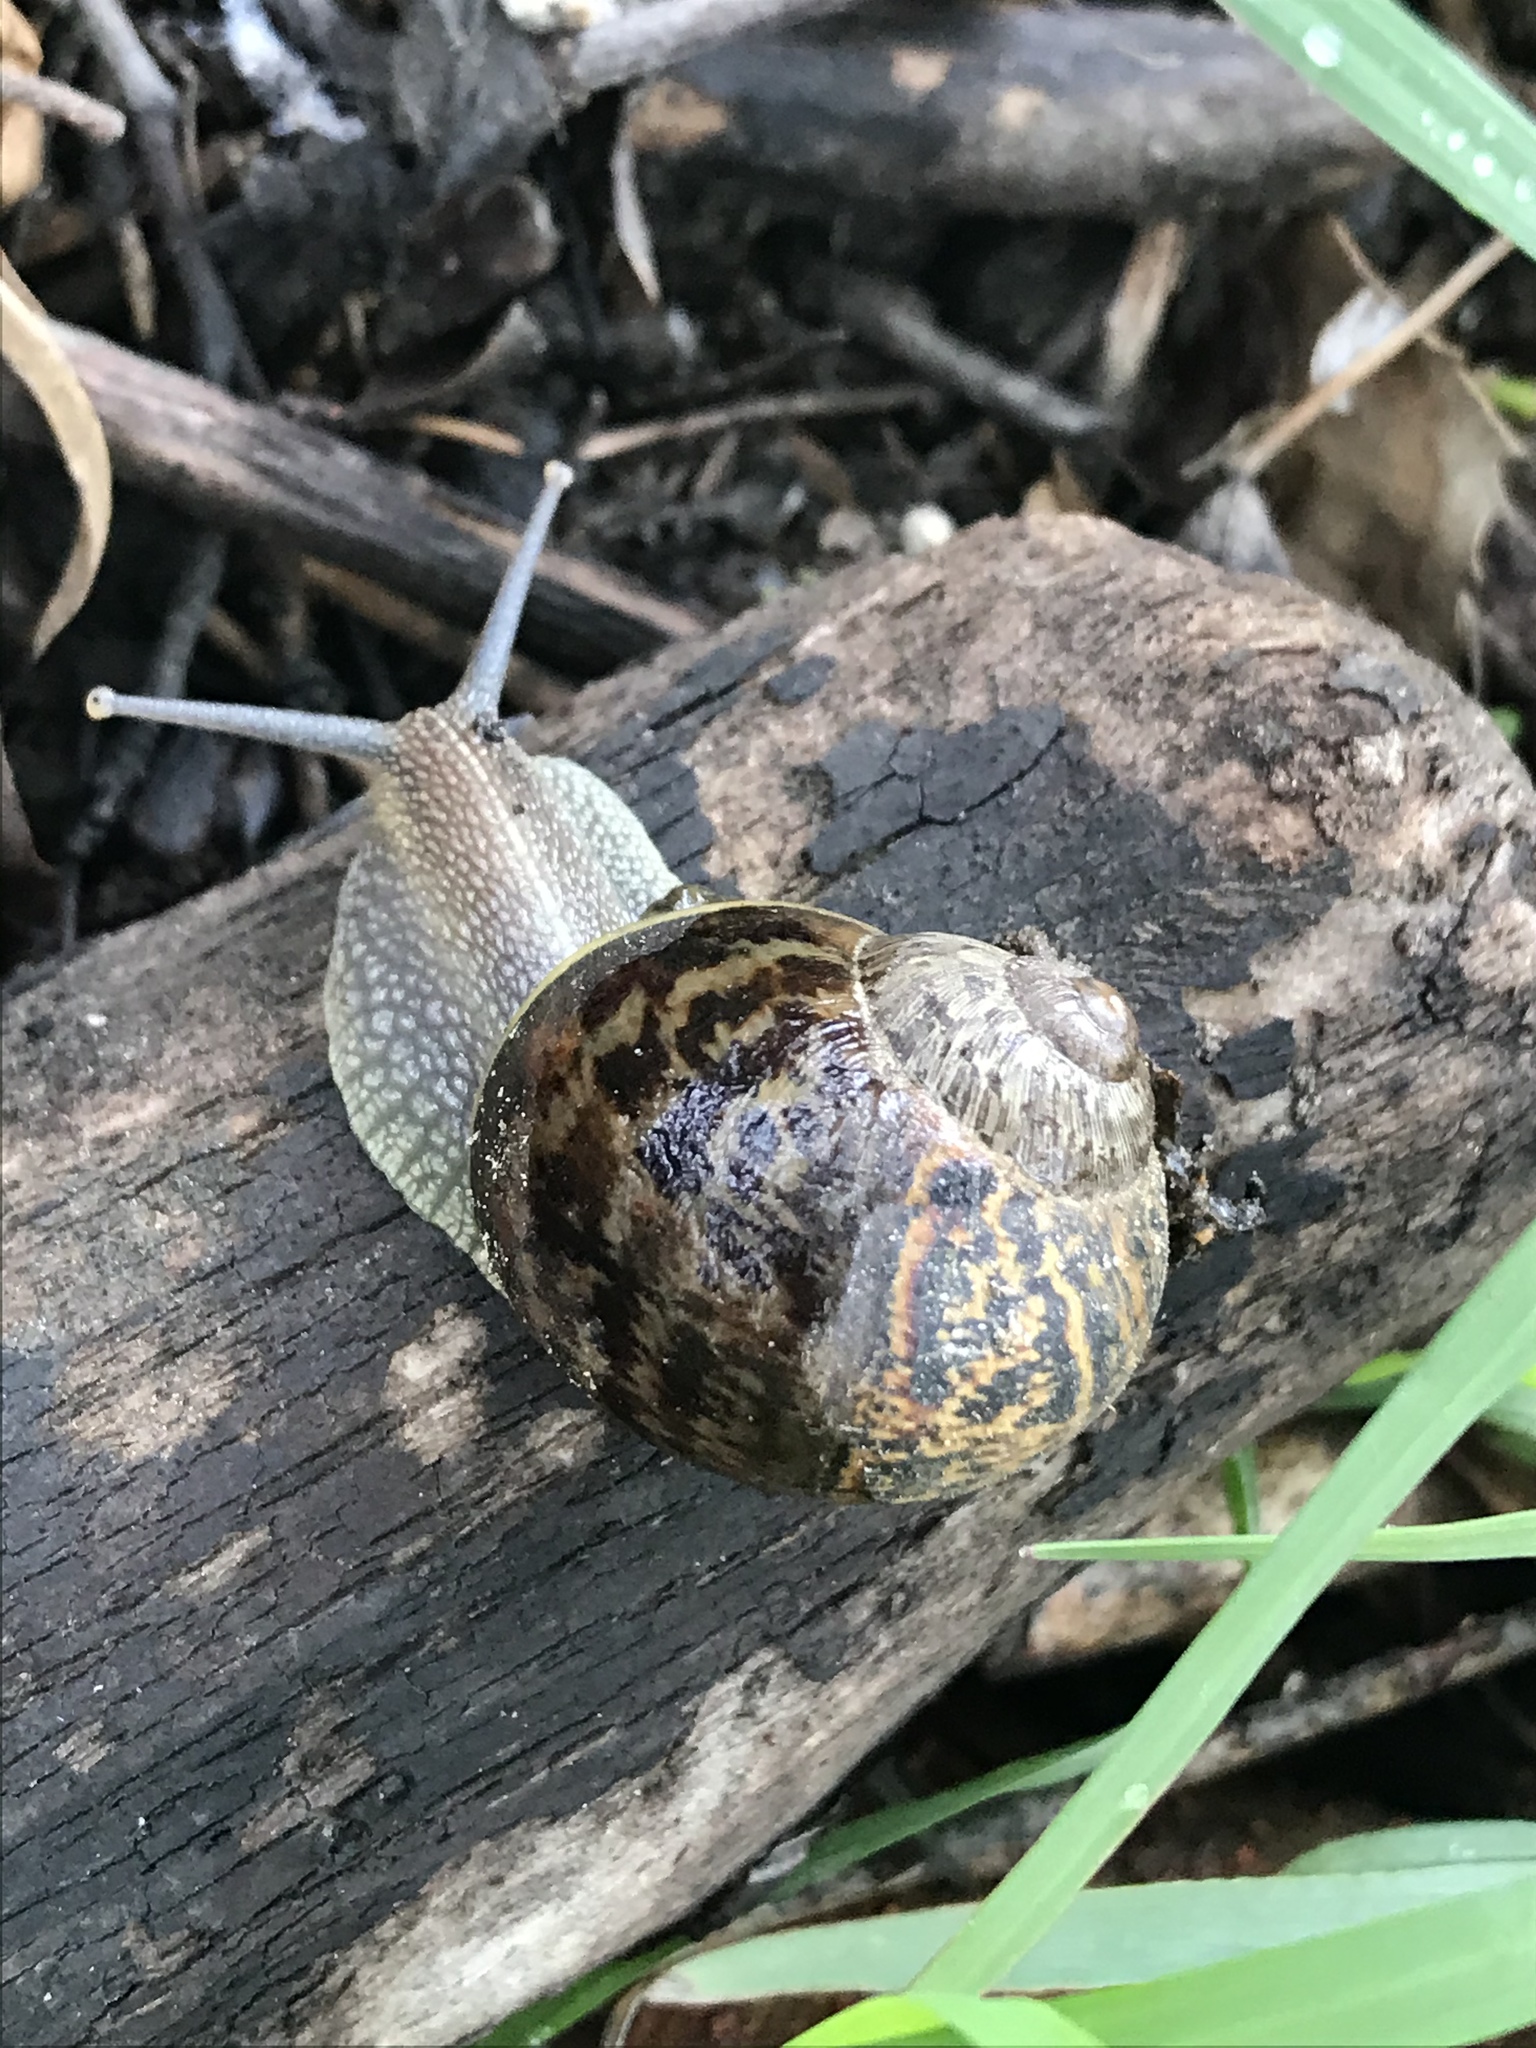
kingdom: Animalia
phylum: Mollusca
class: Gastropoda
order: Stylommatophora
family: Helicidae
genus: Cornu
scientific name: Cornu aspersum
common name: Brown garden snail
